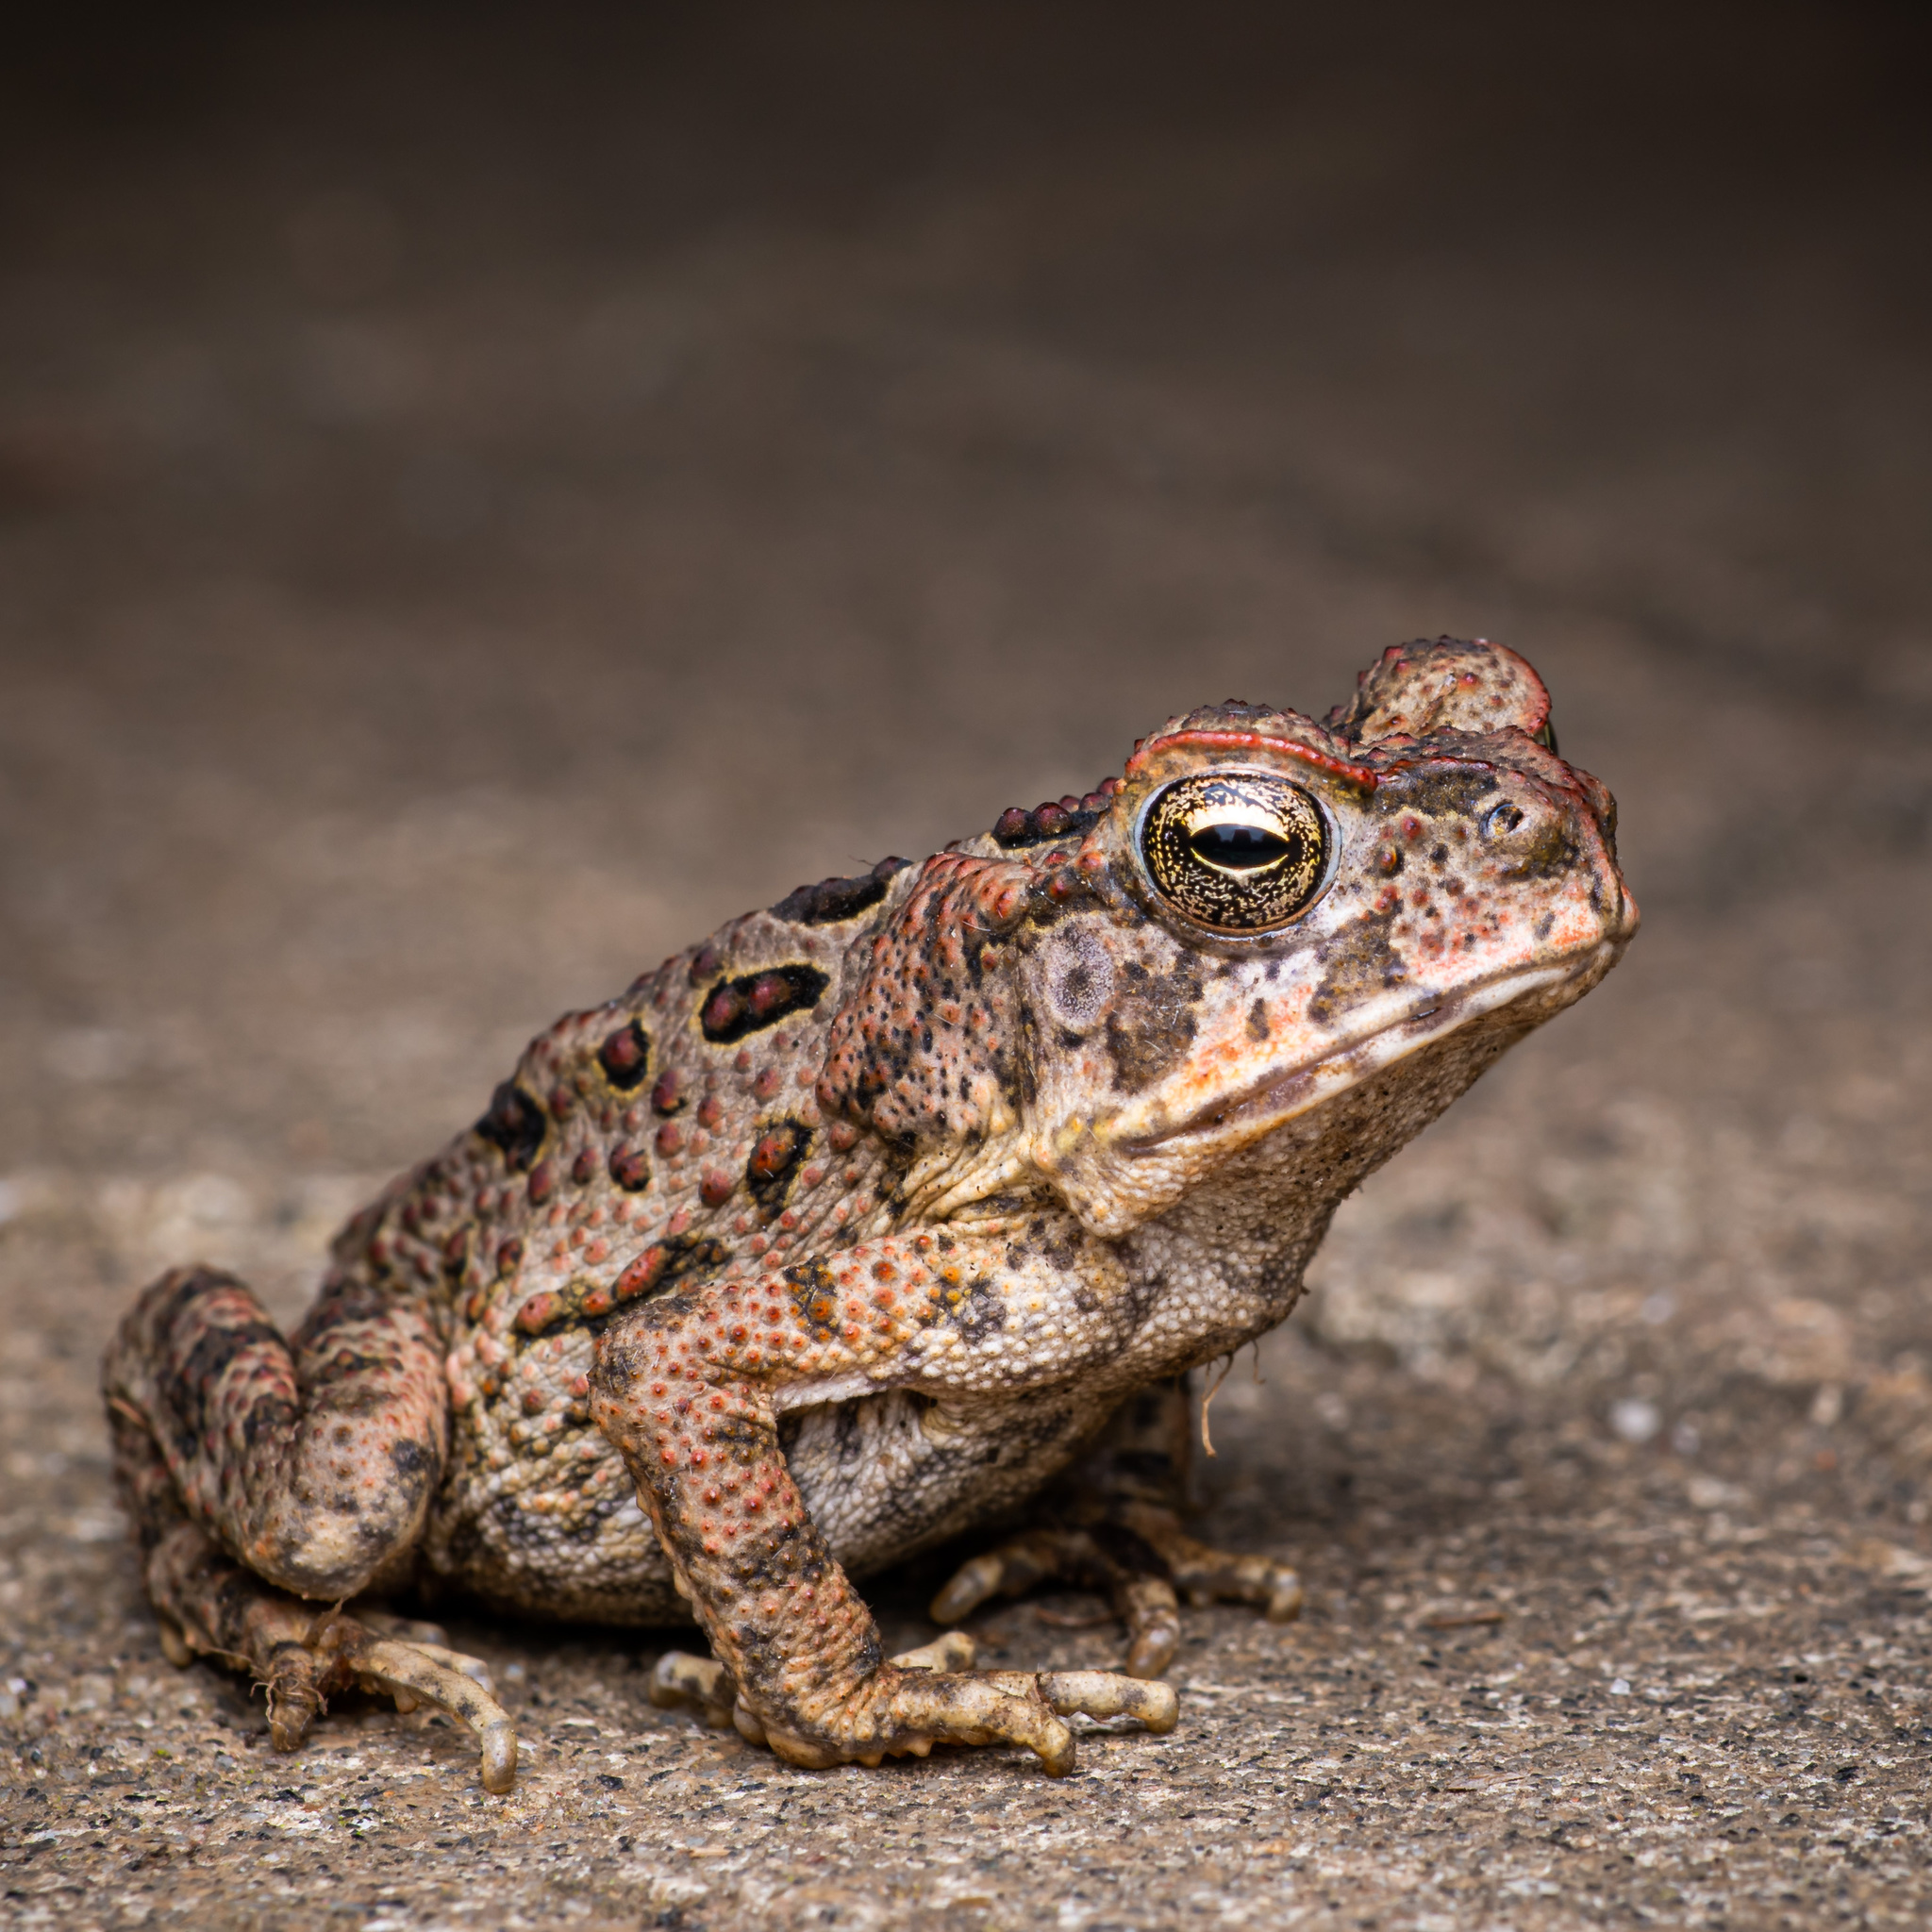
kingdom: Animalia
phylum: Chordata
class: Amphibia
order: Anura
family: Bufonidae
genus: Rhinella
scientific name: Rhinella marina
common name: Cane toad
